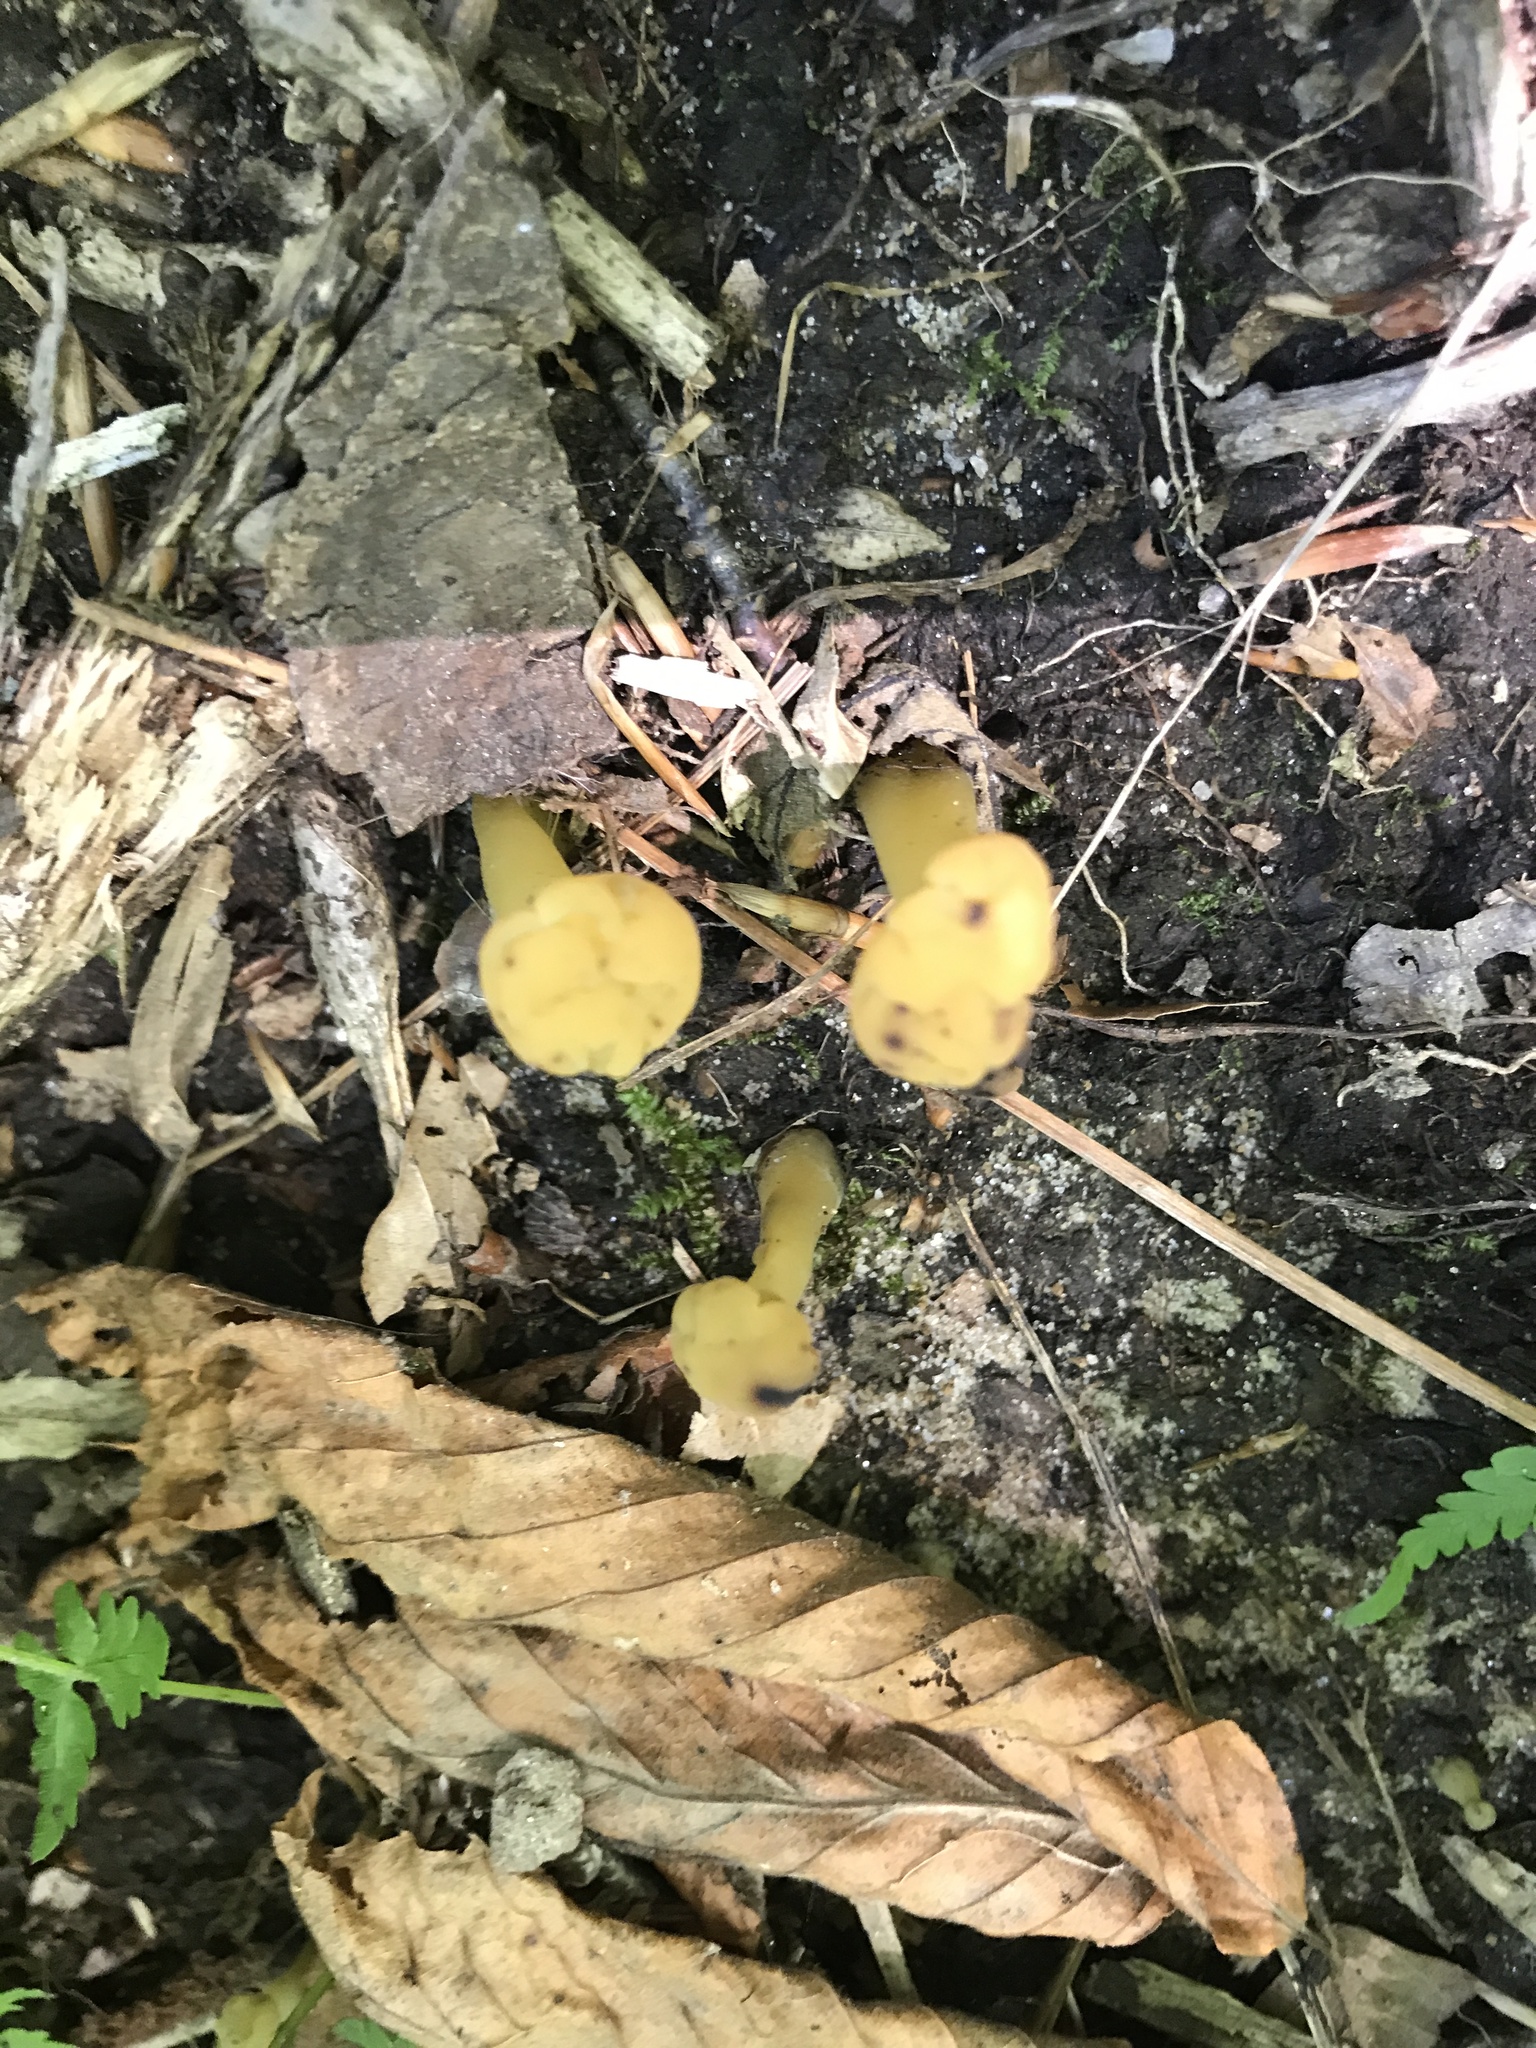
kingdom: Fungi
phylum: Ascomycota
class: Leotiomycetes
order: Leotiales
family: Leotiaceae
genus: Leotia
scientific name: Leotia lubrica
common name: Jellybaby
